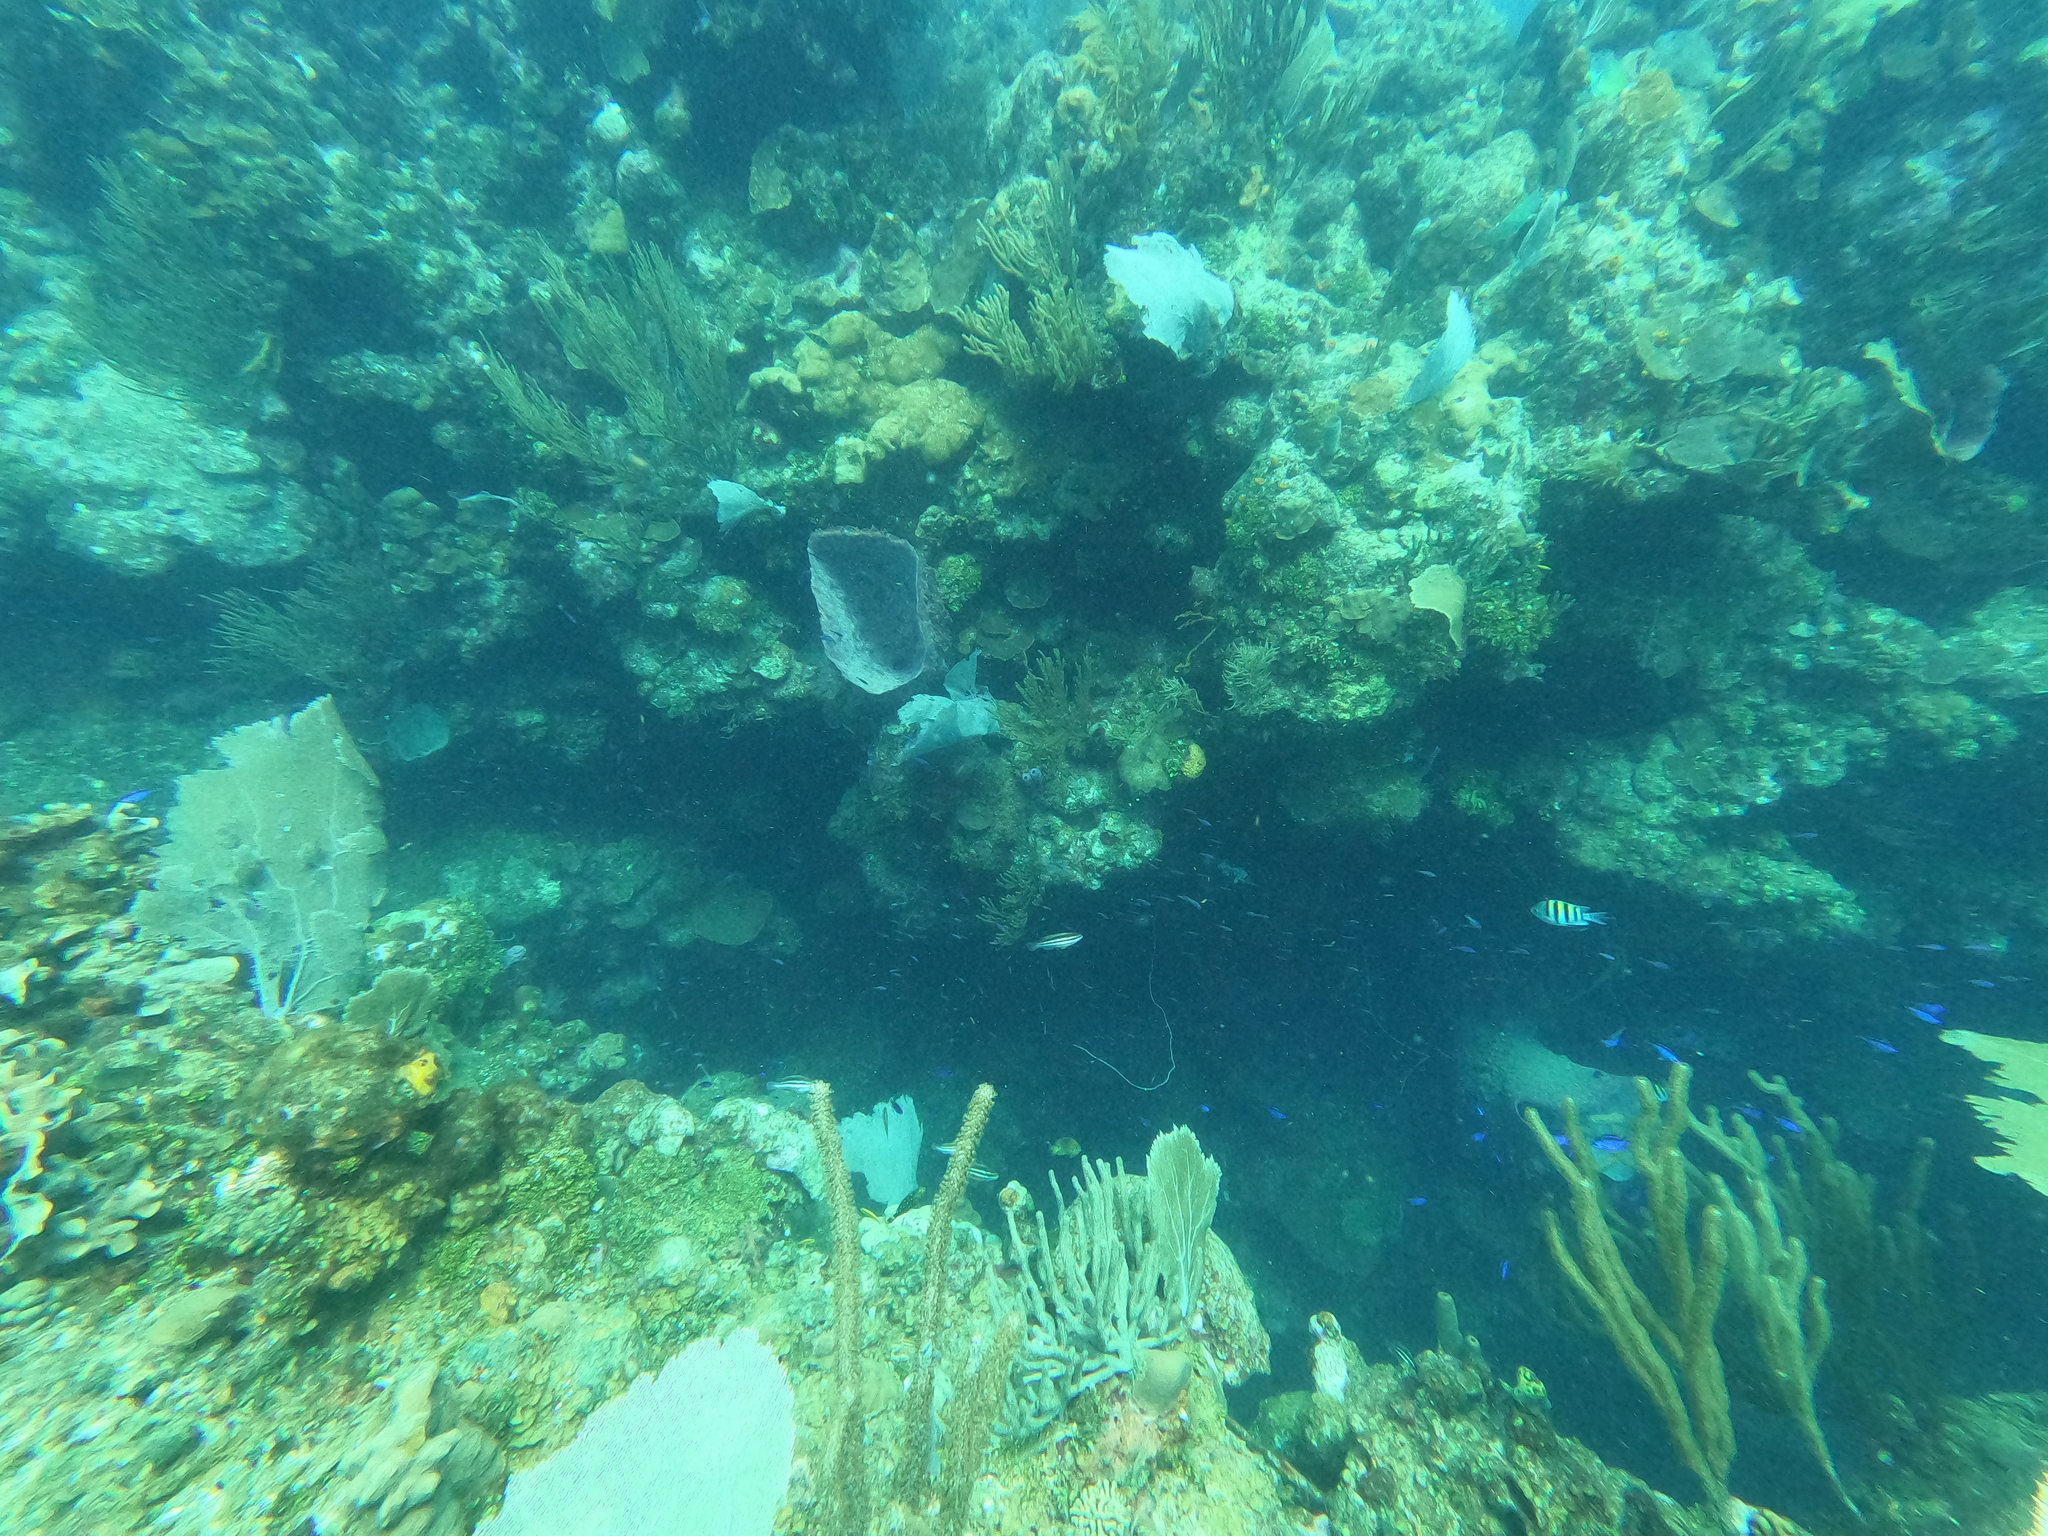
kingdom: Animalia
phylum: Chordata
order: Perciformes
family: Pomacentridae
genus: Abudefduf
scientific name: Abudefduf saxatilis
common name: Sergeant major
